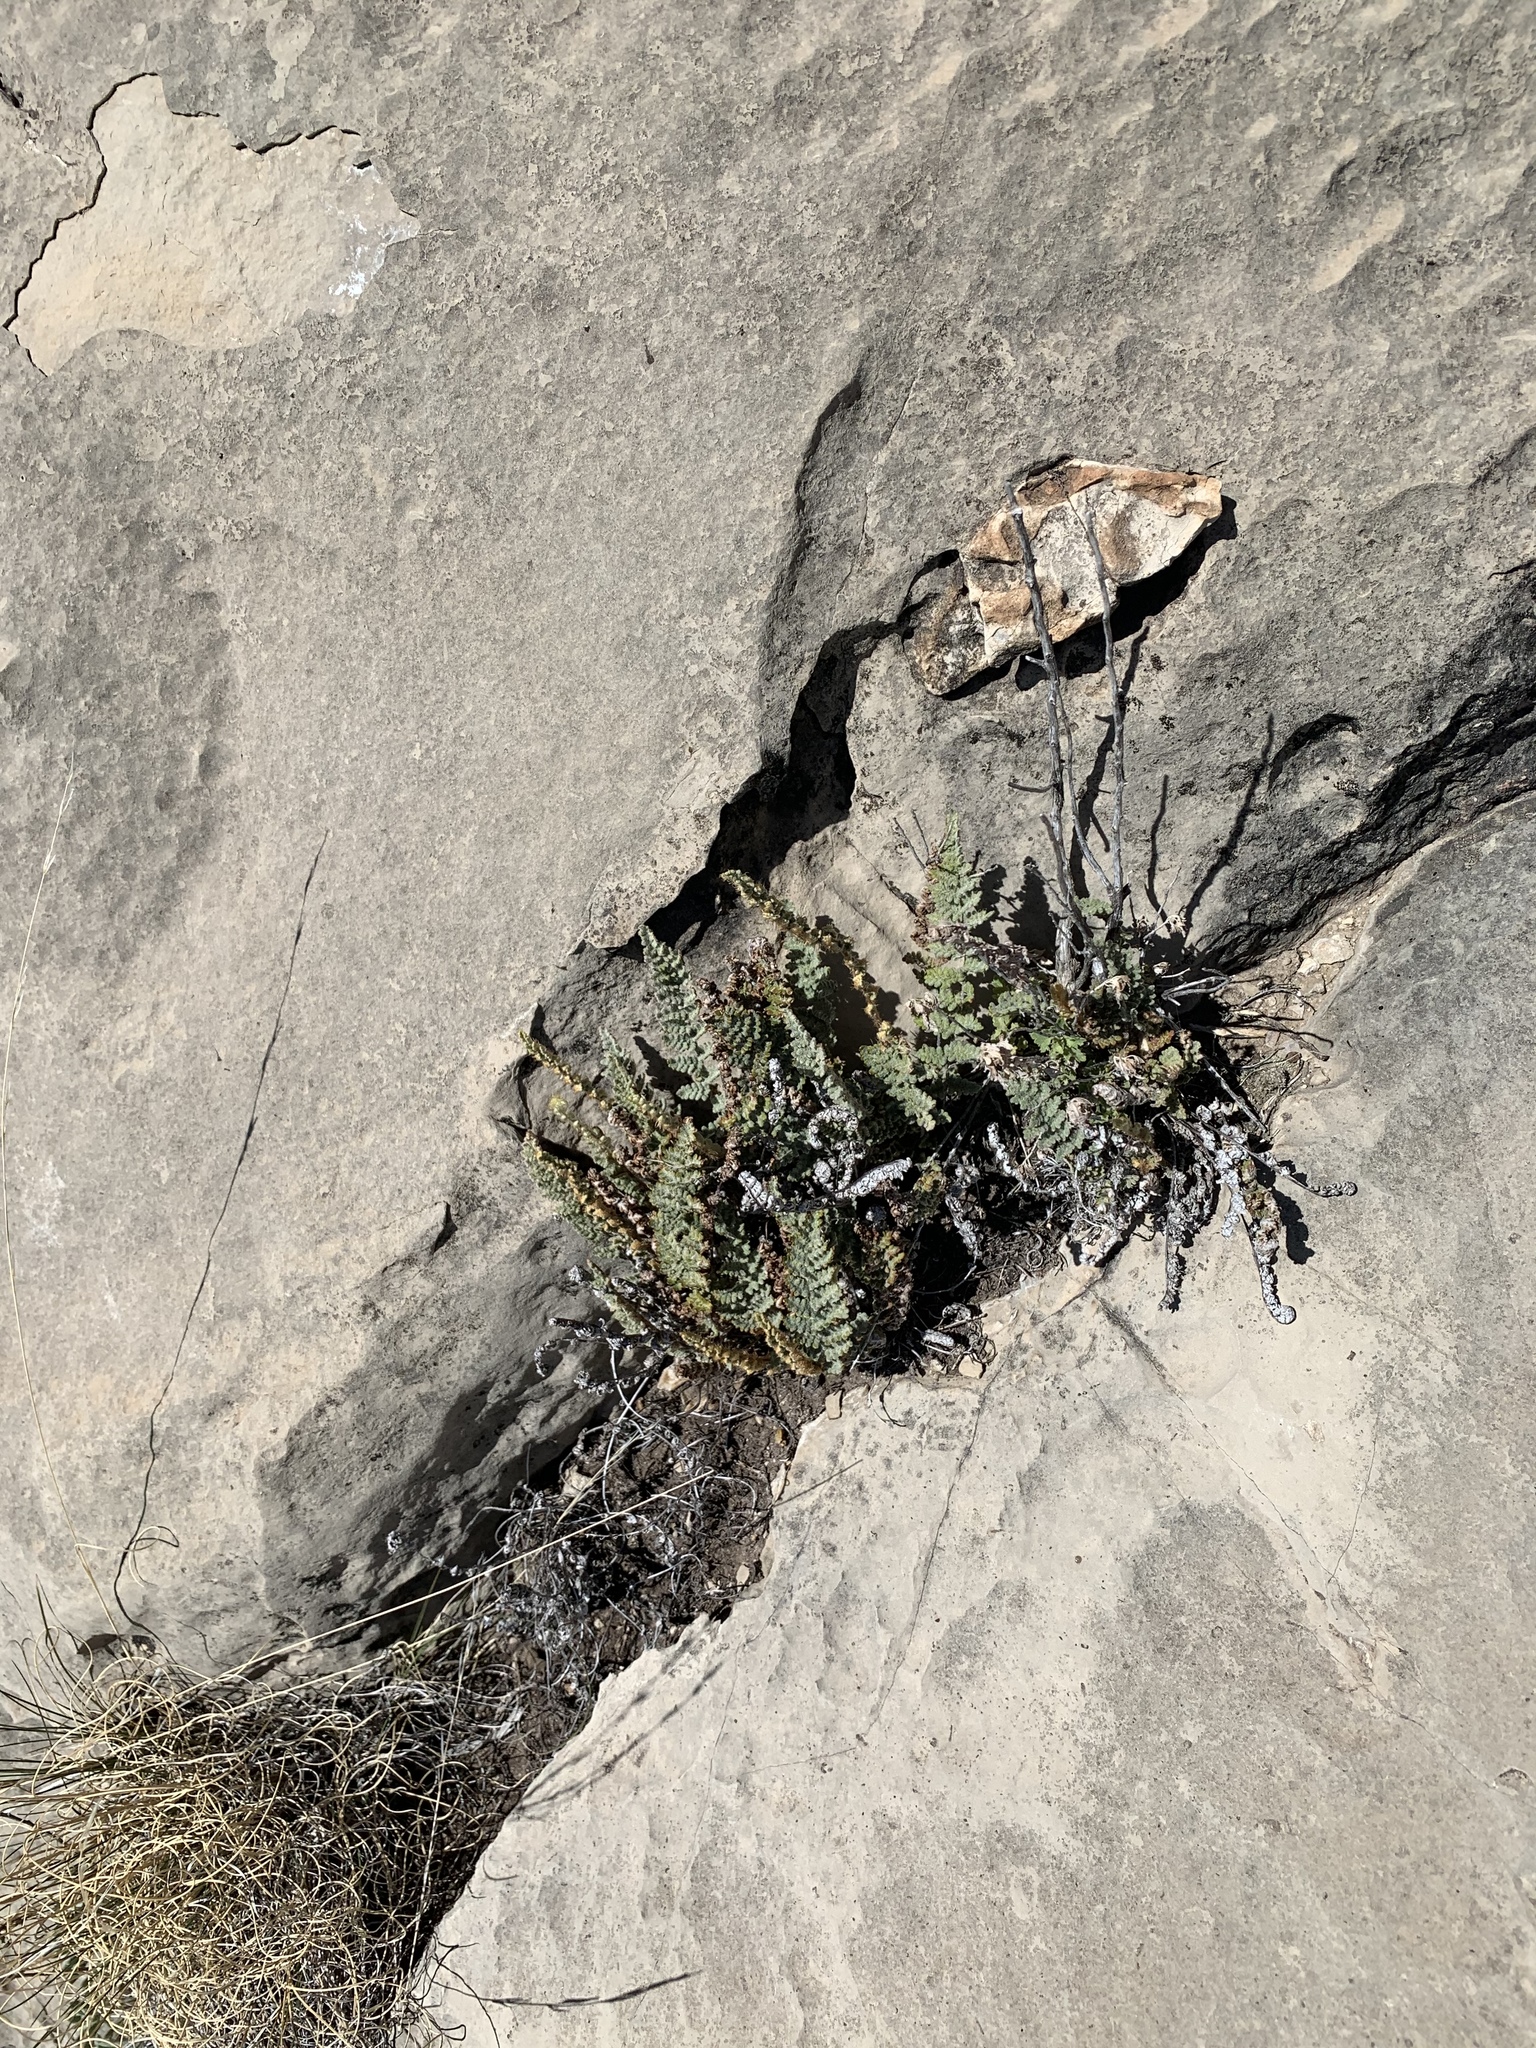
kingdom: Plantae
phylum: Tracheophyta
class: Polypodiopsida
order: Polypodiales
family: Pteridaceae
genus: Myriopteris
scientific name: Myriopteris windhamii
